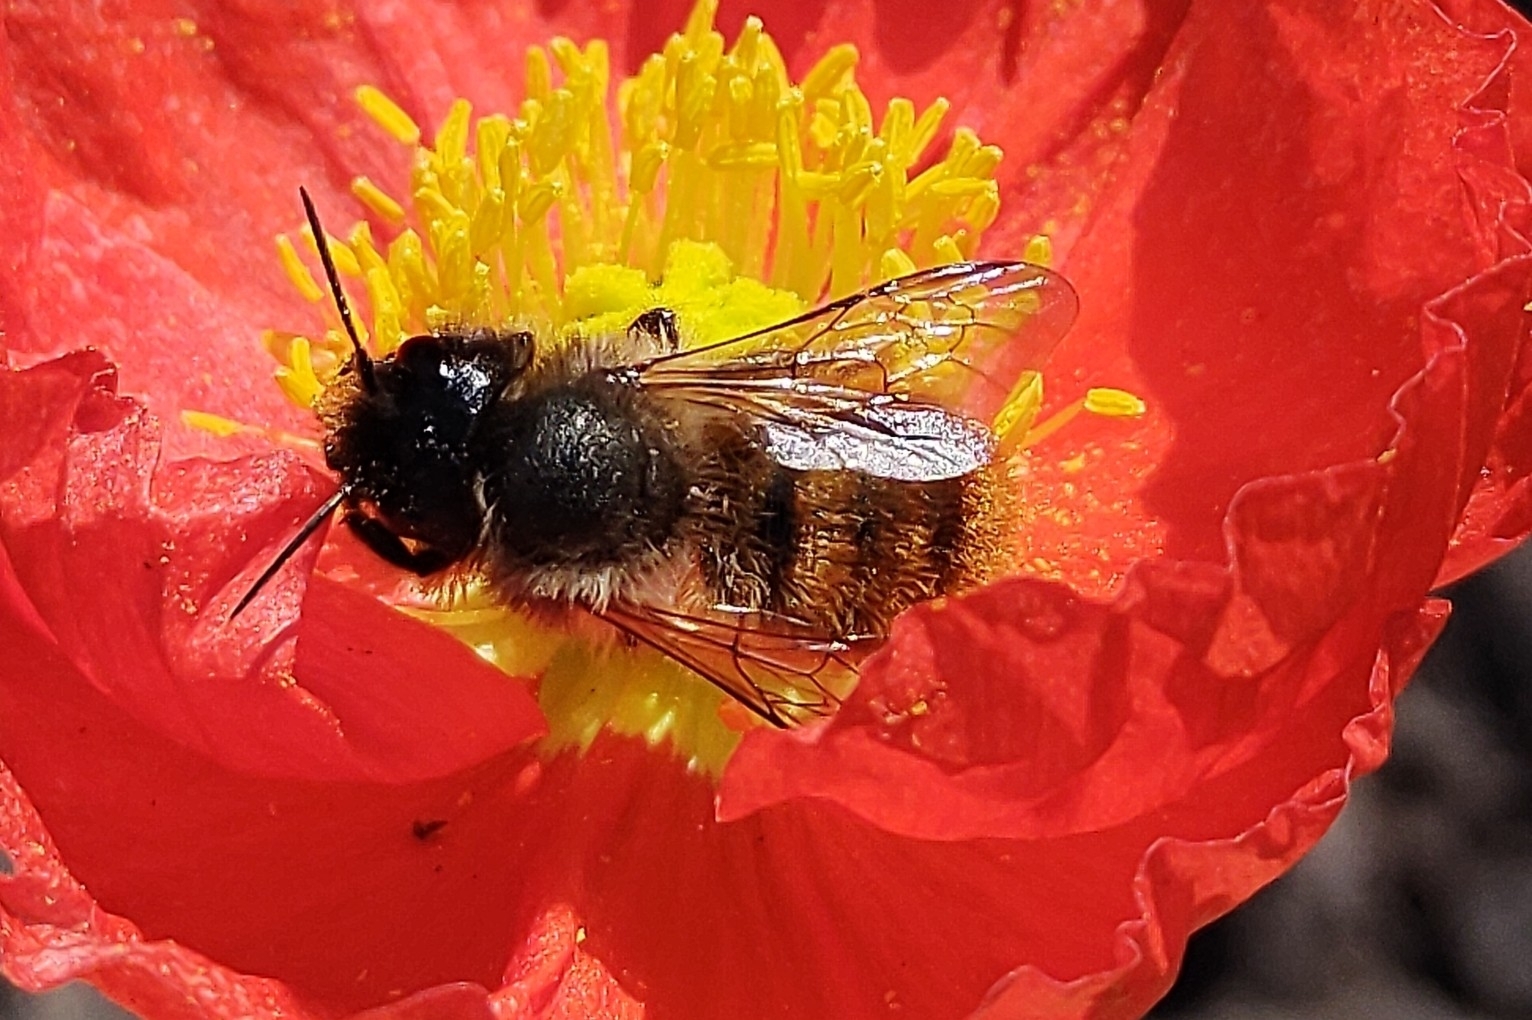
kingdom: Animalia
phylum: Arthropoda
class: Insecta
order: Hymenoptera
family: Megachilidae
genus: Osmia
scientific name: Osmia bicornis
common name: Red mason bee
